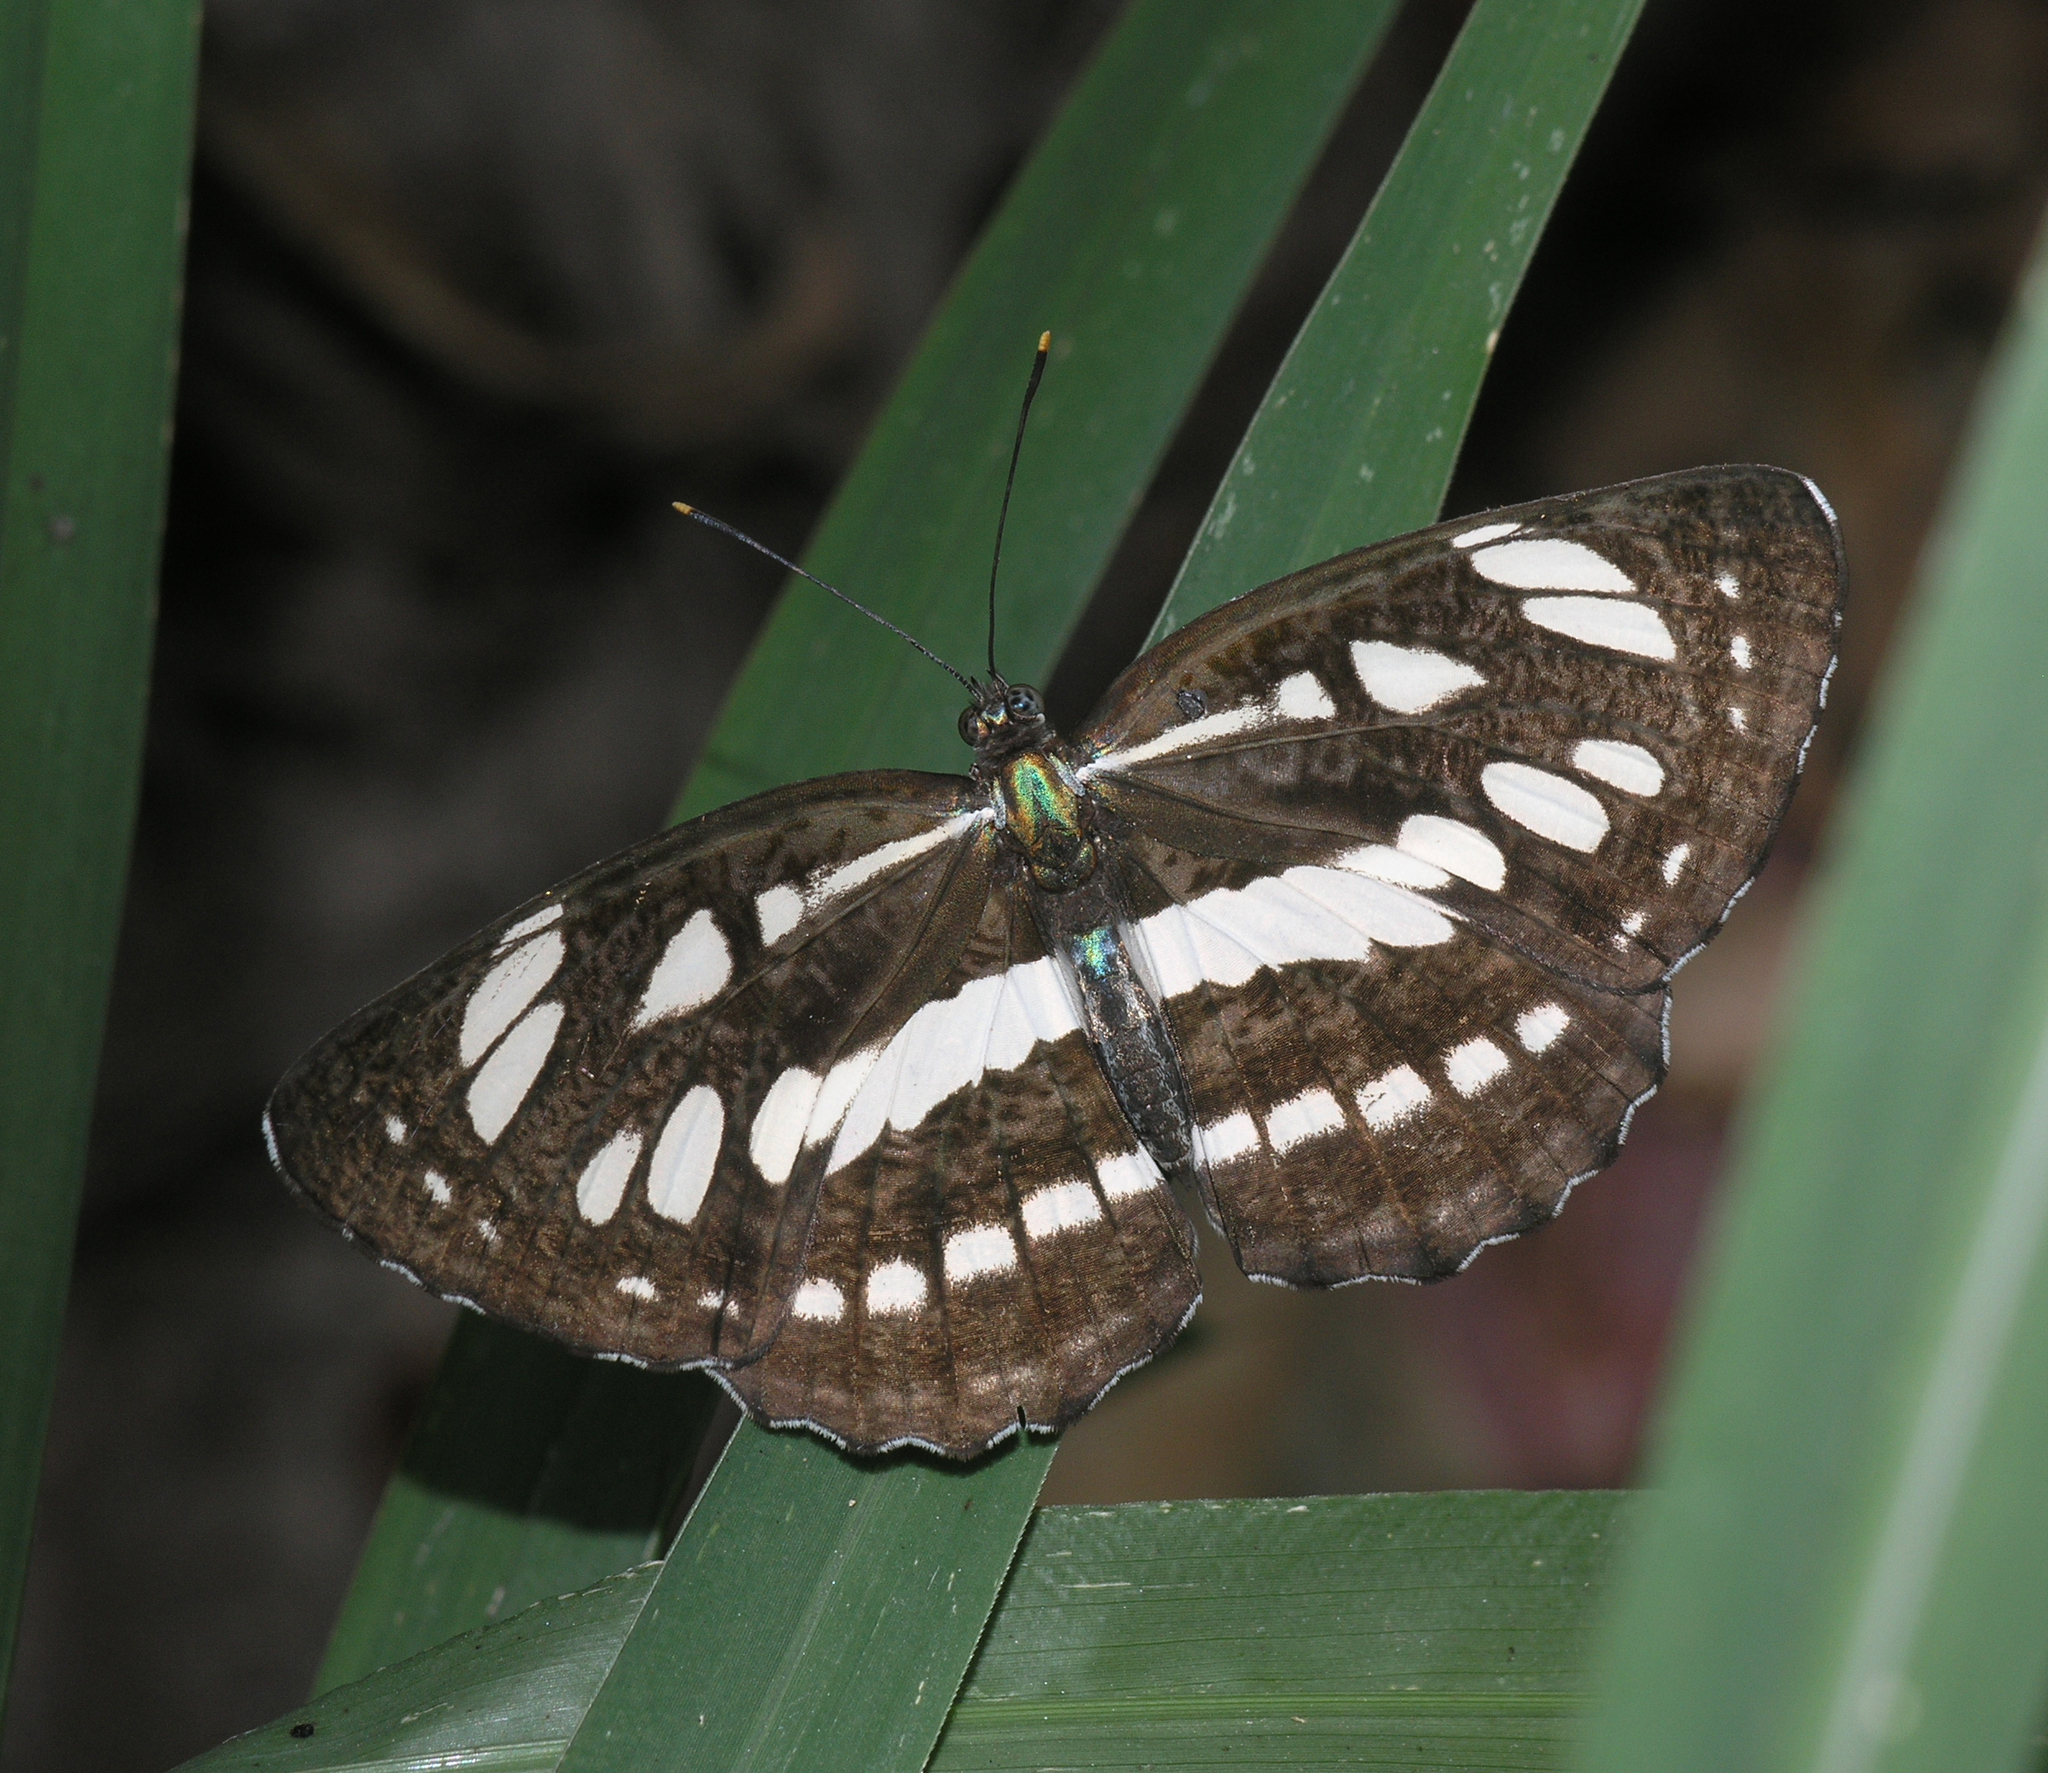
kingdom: Animalia
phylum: Arthropoda
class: Insecta
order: Lepidoptera
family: Nymphalidae
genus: Neptis
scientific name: Neptis hylas
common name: Common sailer
